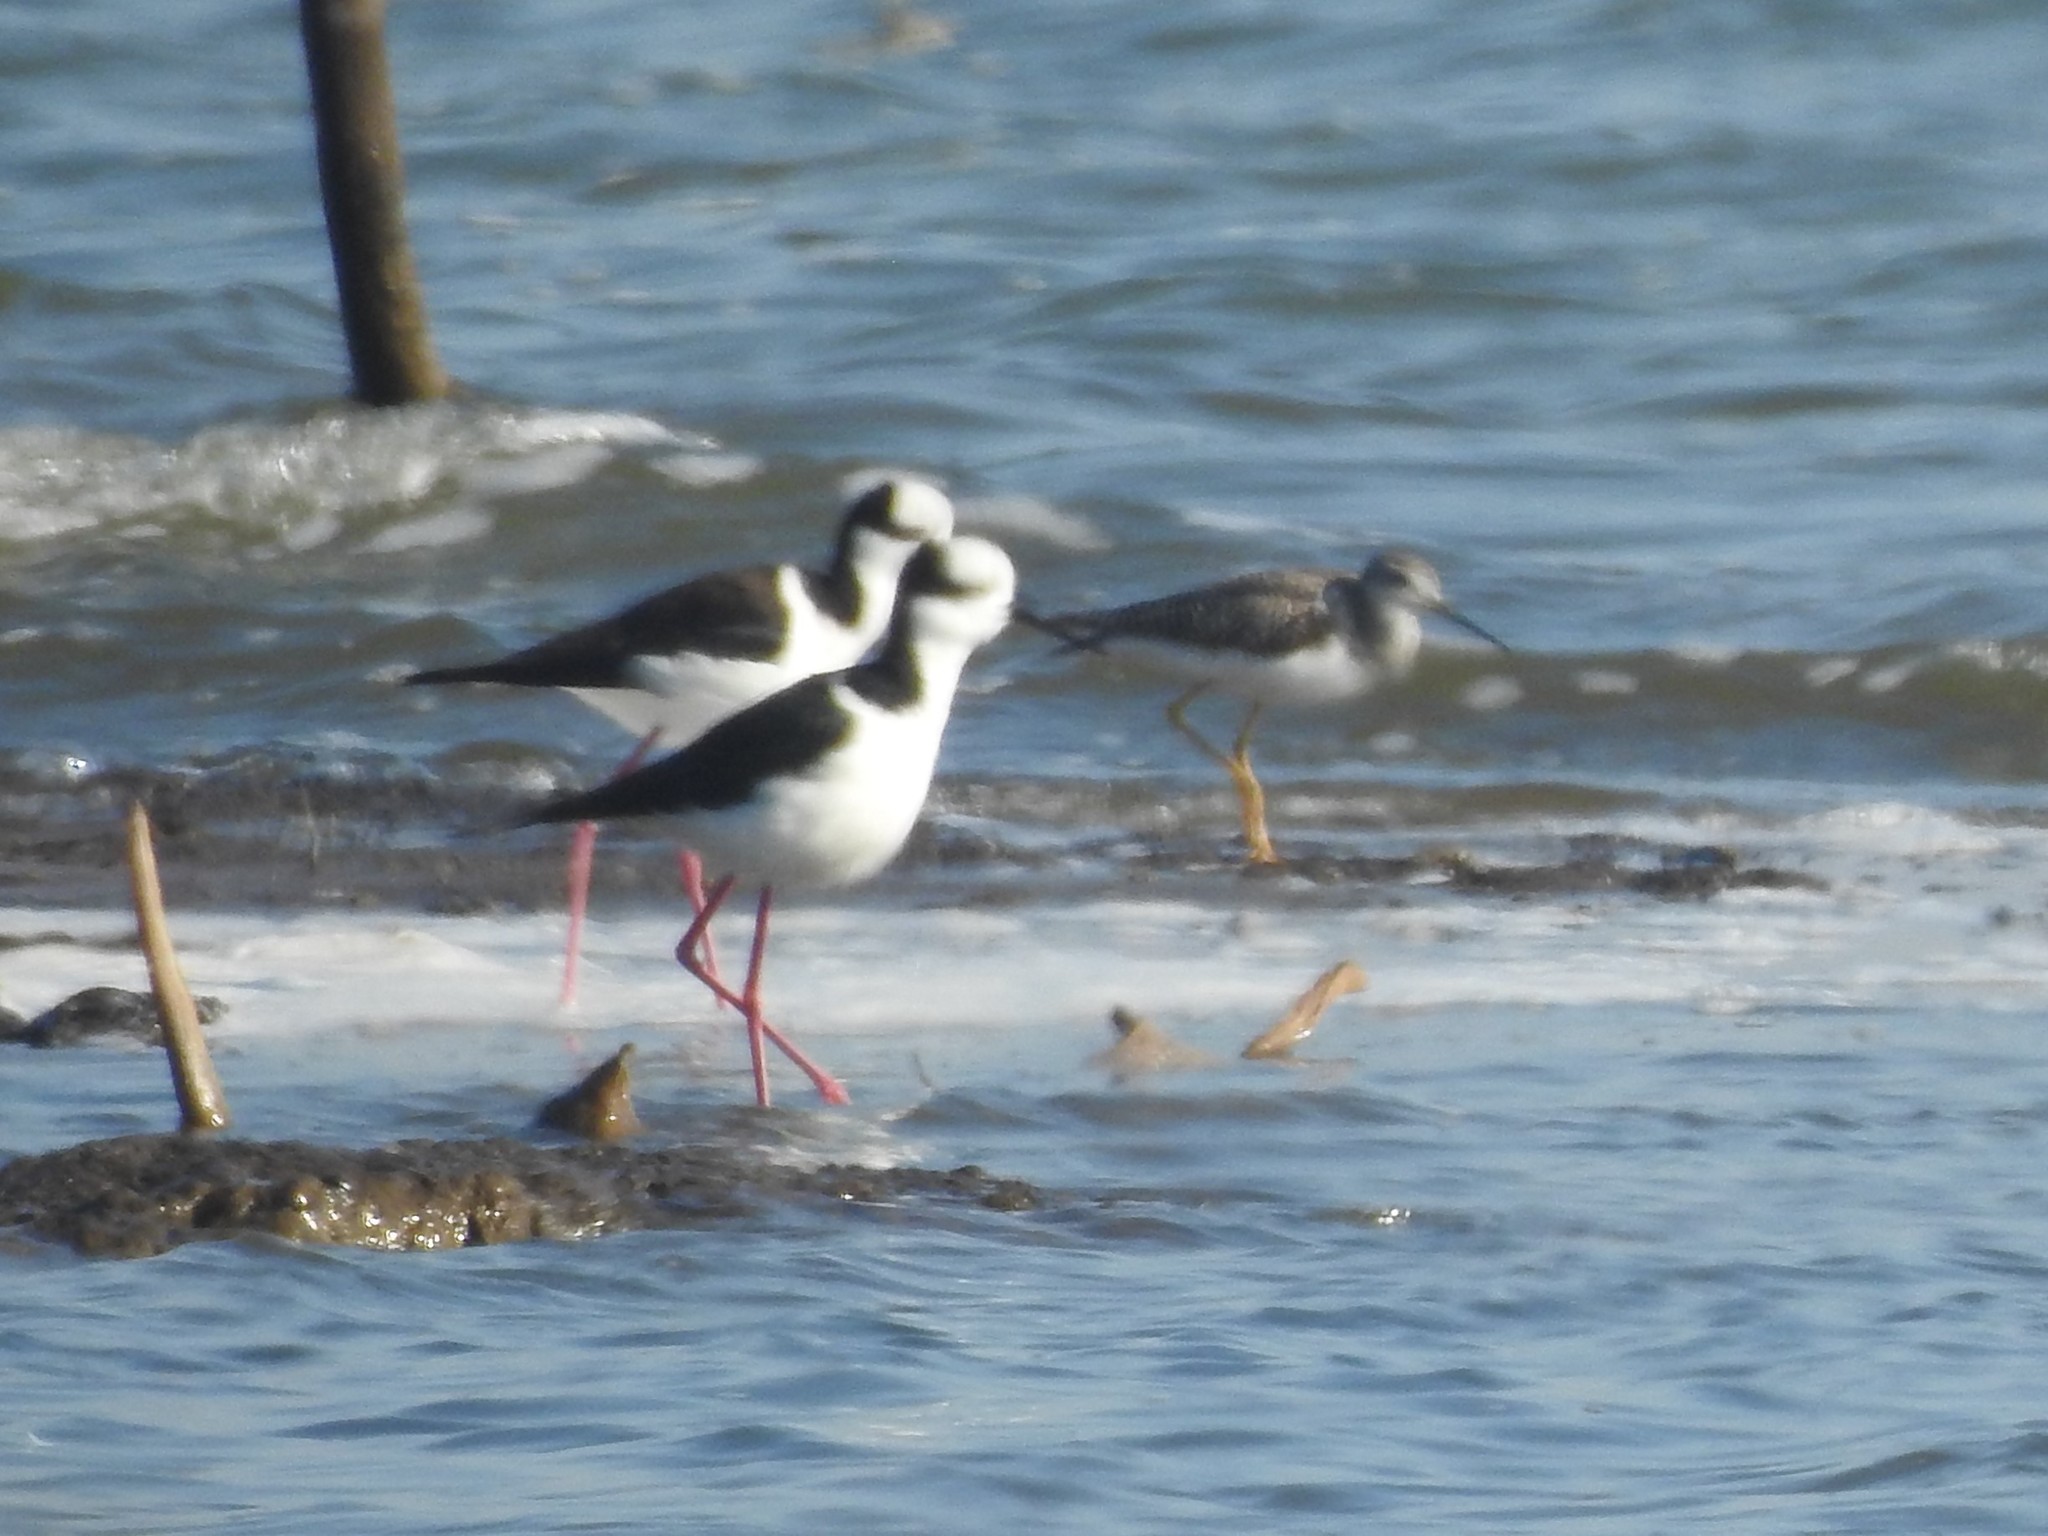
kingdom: Animalia
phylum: Chordata
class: Aves
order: Charadriiformes
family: Recurvirostridae
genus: Himantopus
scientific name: Himantopus mexicanus
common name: Black-necked stilt
